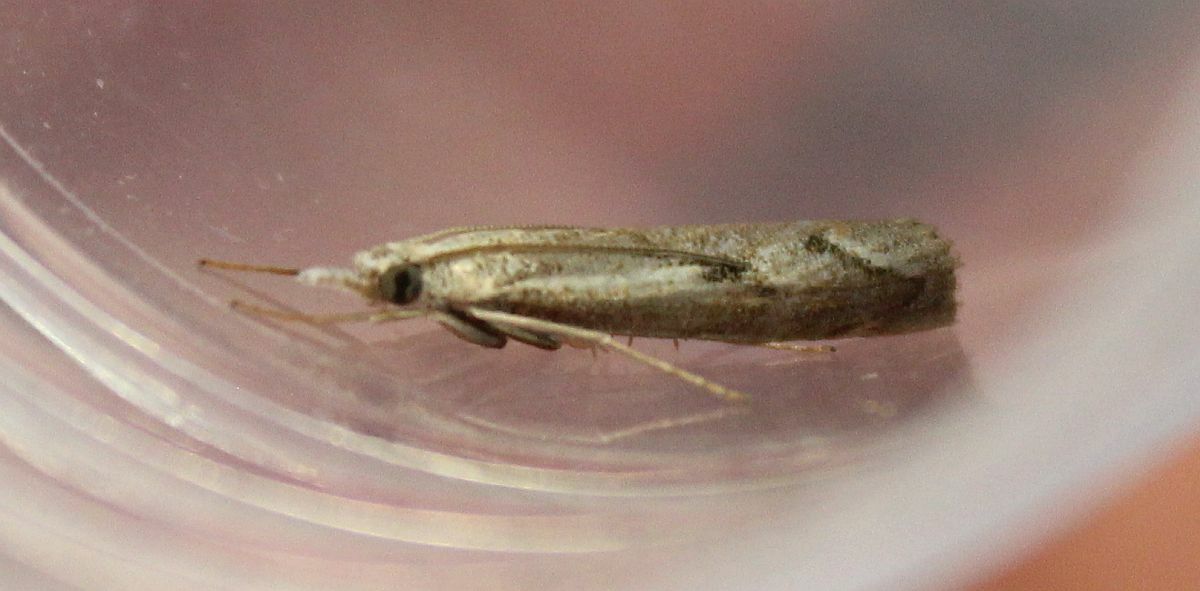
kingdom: Animalia
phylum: Arthropoda
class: Insecta
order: Lepidoptera
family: Crambidae
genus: Agriphila
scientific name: Agriphila geniculea
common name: Elbow-stripe grass-veneer
